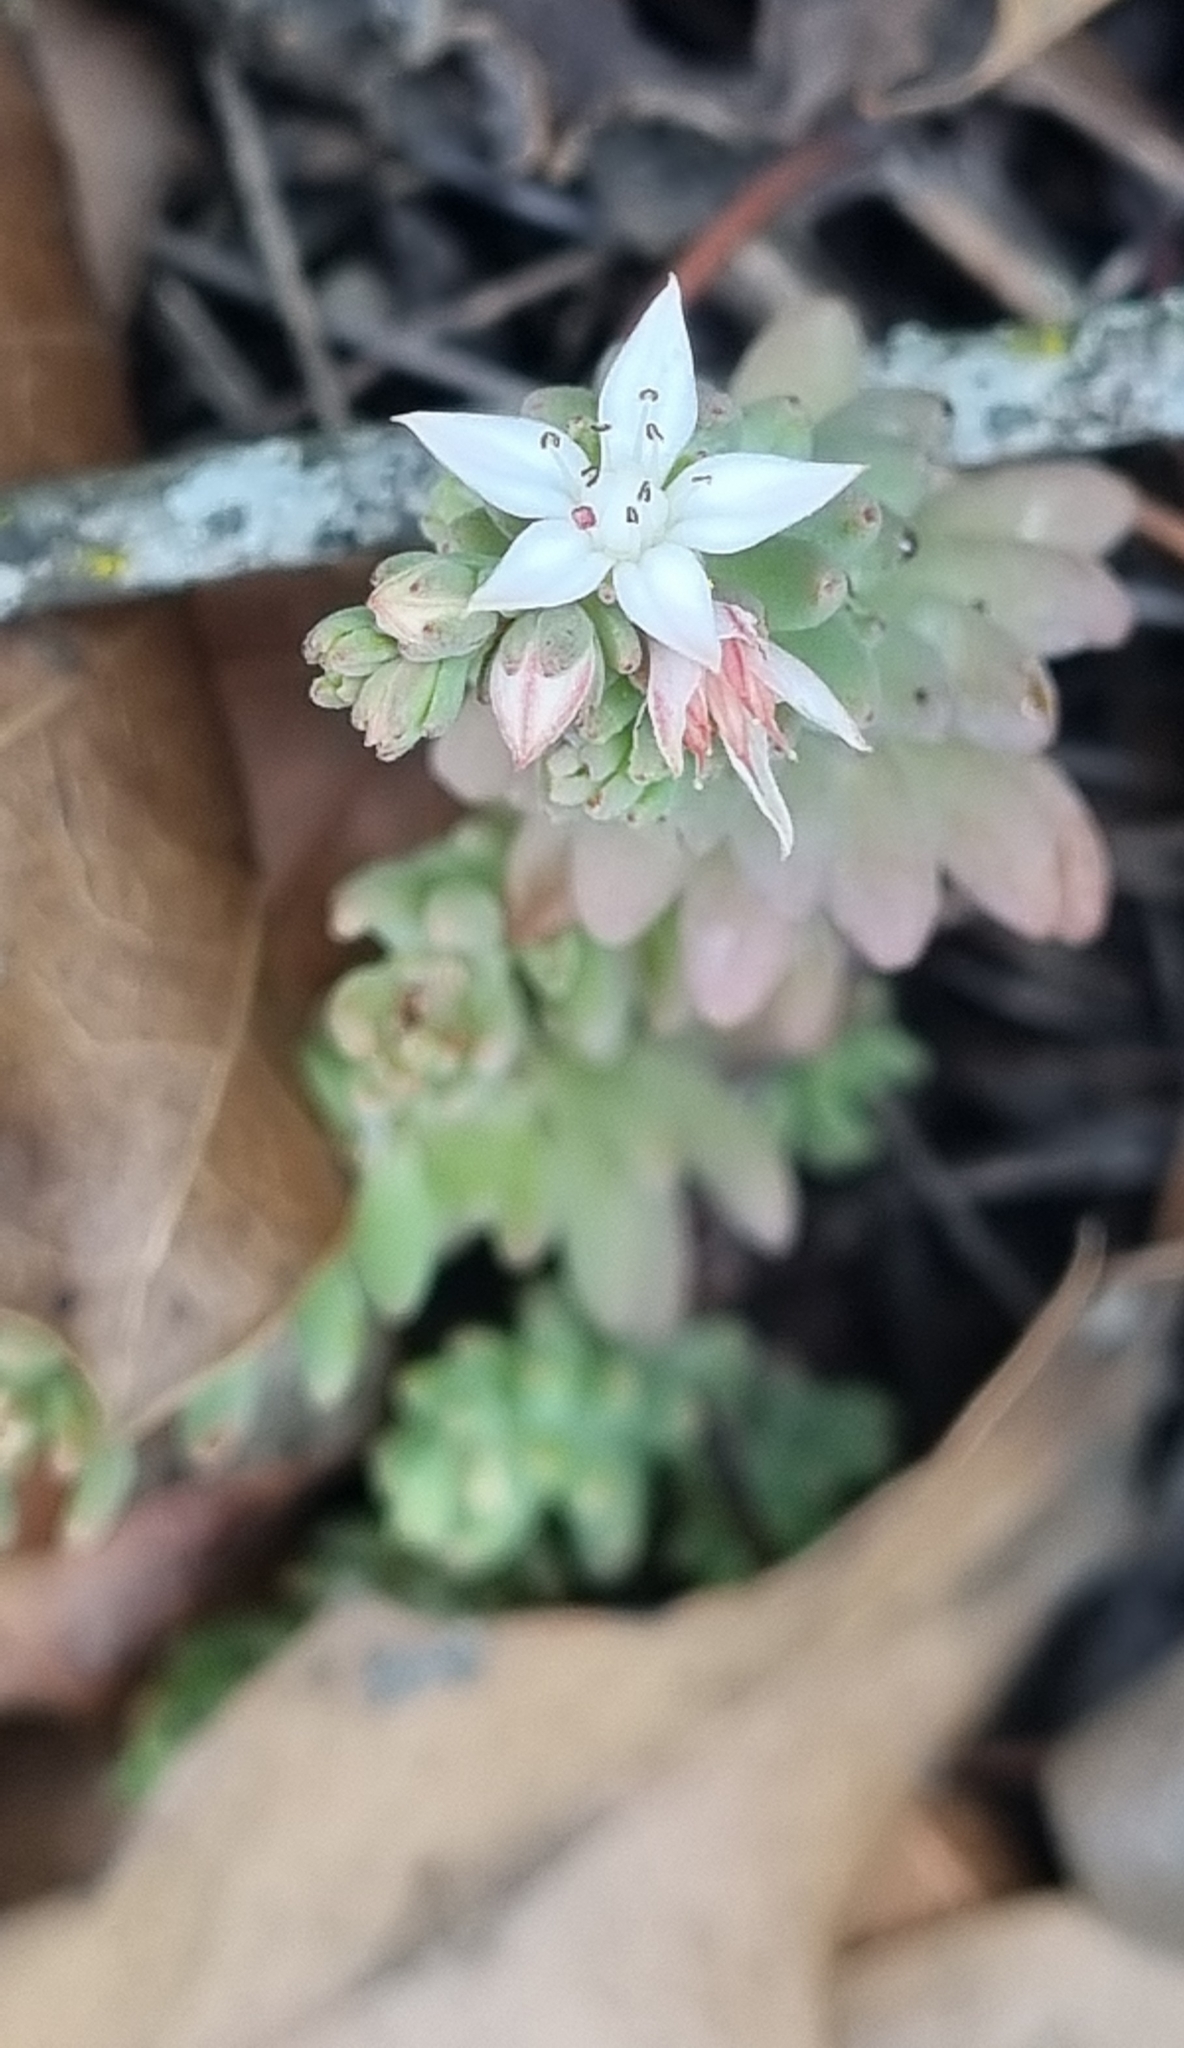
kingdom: Plantae
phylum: Tracheophyta
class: Magnoliopsida
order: Saxifragales
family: Crassulaceae
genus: Sedum
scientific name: Sedum potosinum
